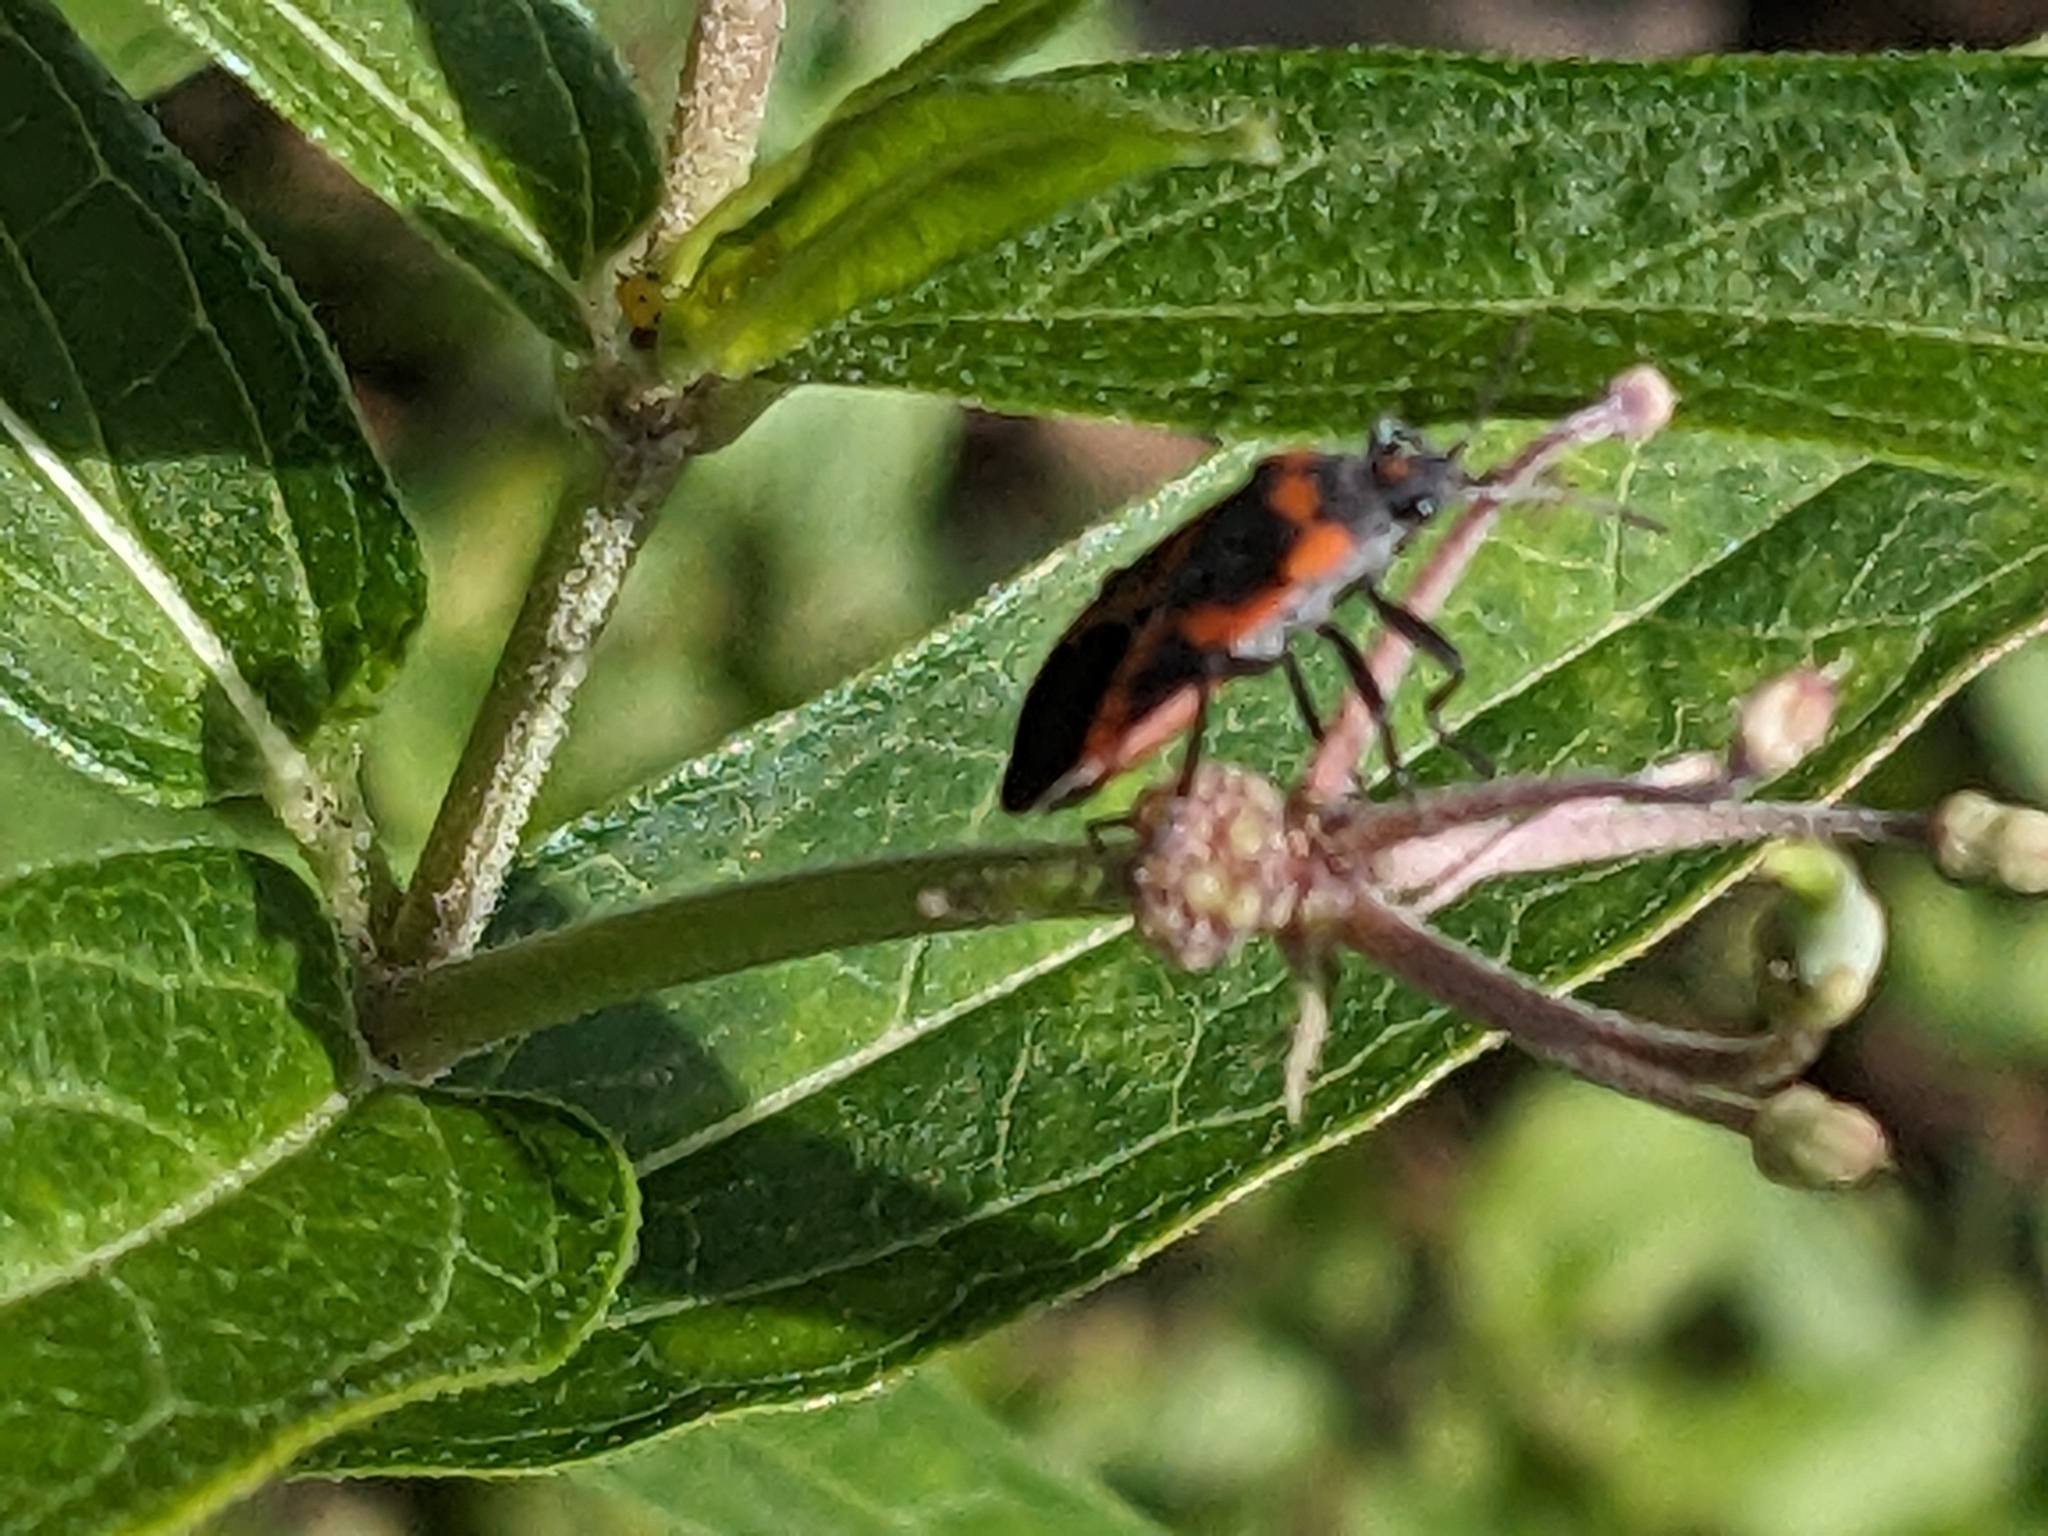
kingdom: Animalia
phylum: Arthropoda
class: Insecta
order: Hemiptera
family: Lygaeidae
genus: Lygaeus
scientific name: Lygaeus kalmii
